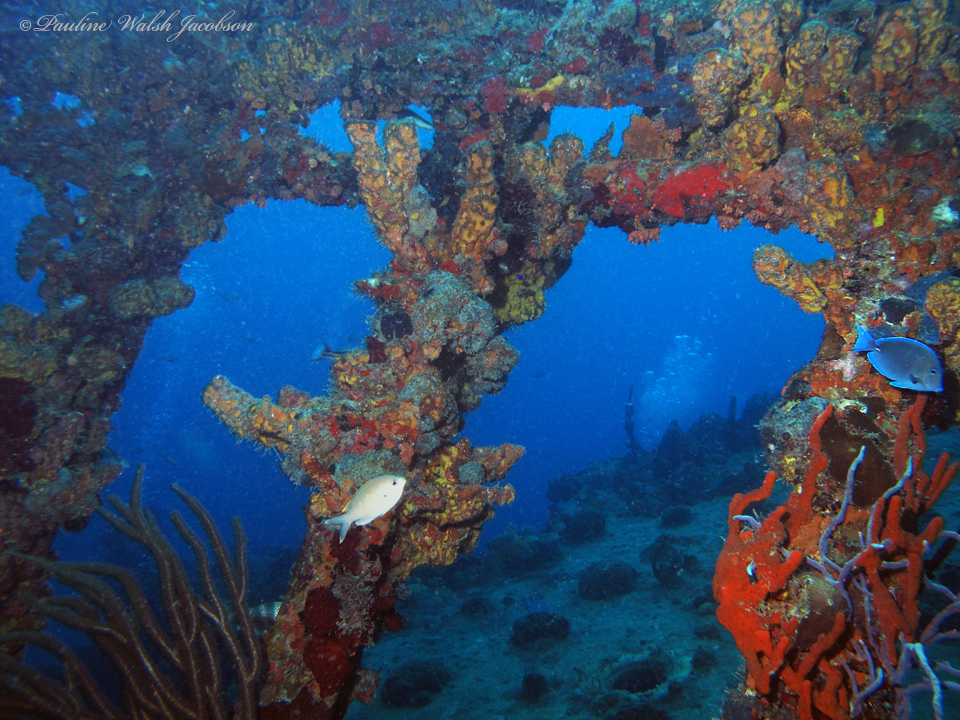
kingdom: Animalia
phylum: Chordata
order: Perciformes
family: Acanthuridae
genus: Acanthurus
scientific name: Acanthurus coeruleus
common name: Blue tang
